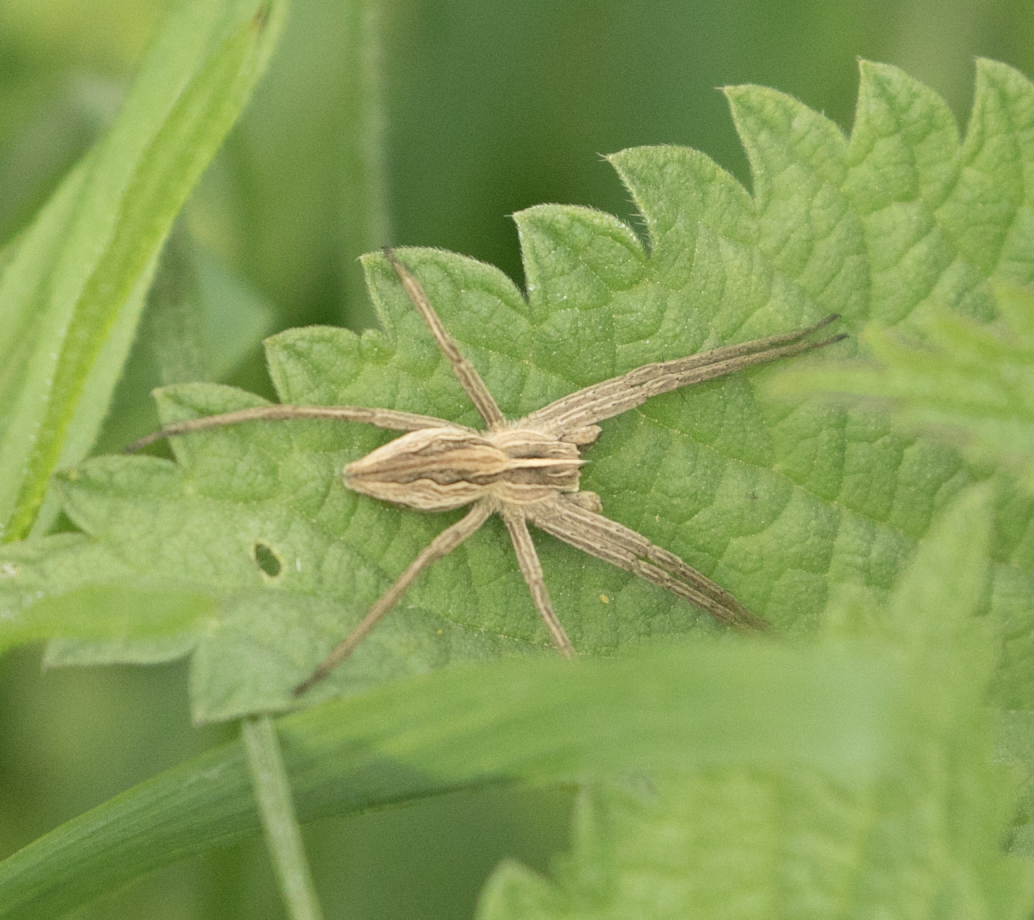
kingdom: Animalia
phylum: Arthropoda
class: Arachnida
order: Araneae
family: Pisauridae
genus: Pisaura
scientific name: Pisaura mirabilis
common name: Tent spider
